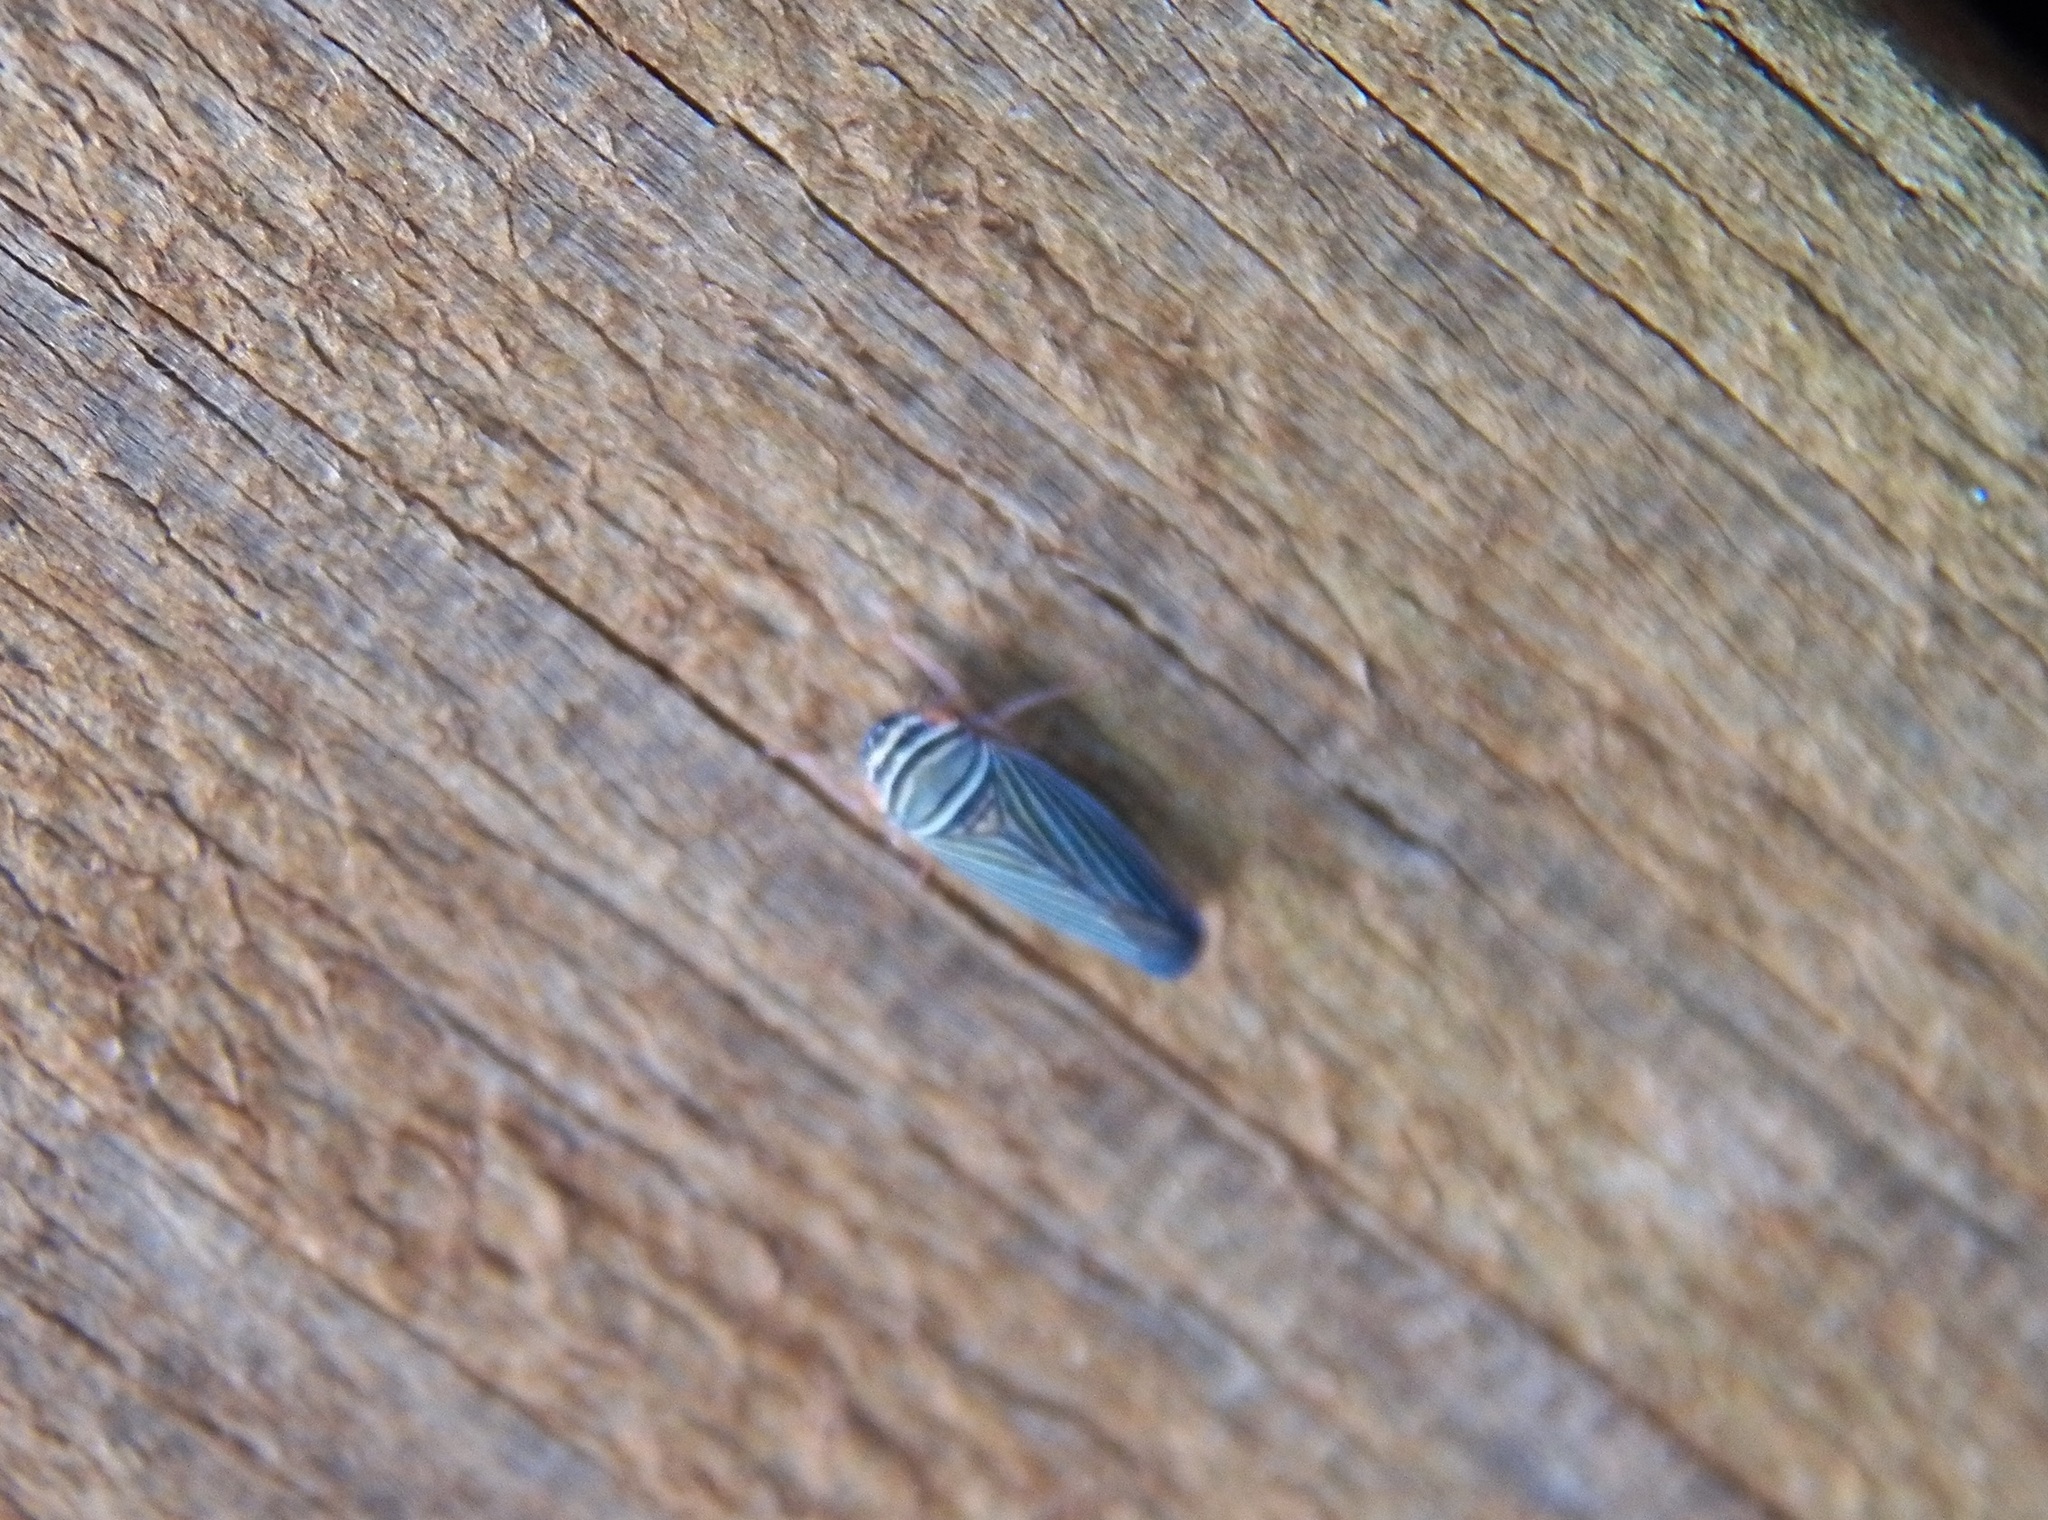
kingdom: Animalia
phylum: Arthropoda
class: Insecta
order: Hemiptera
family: Cicadellidae
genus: Tylozygus
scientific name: Tylozygus bifidus
